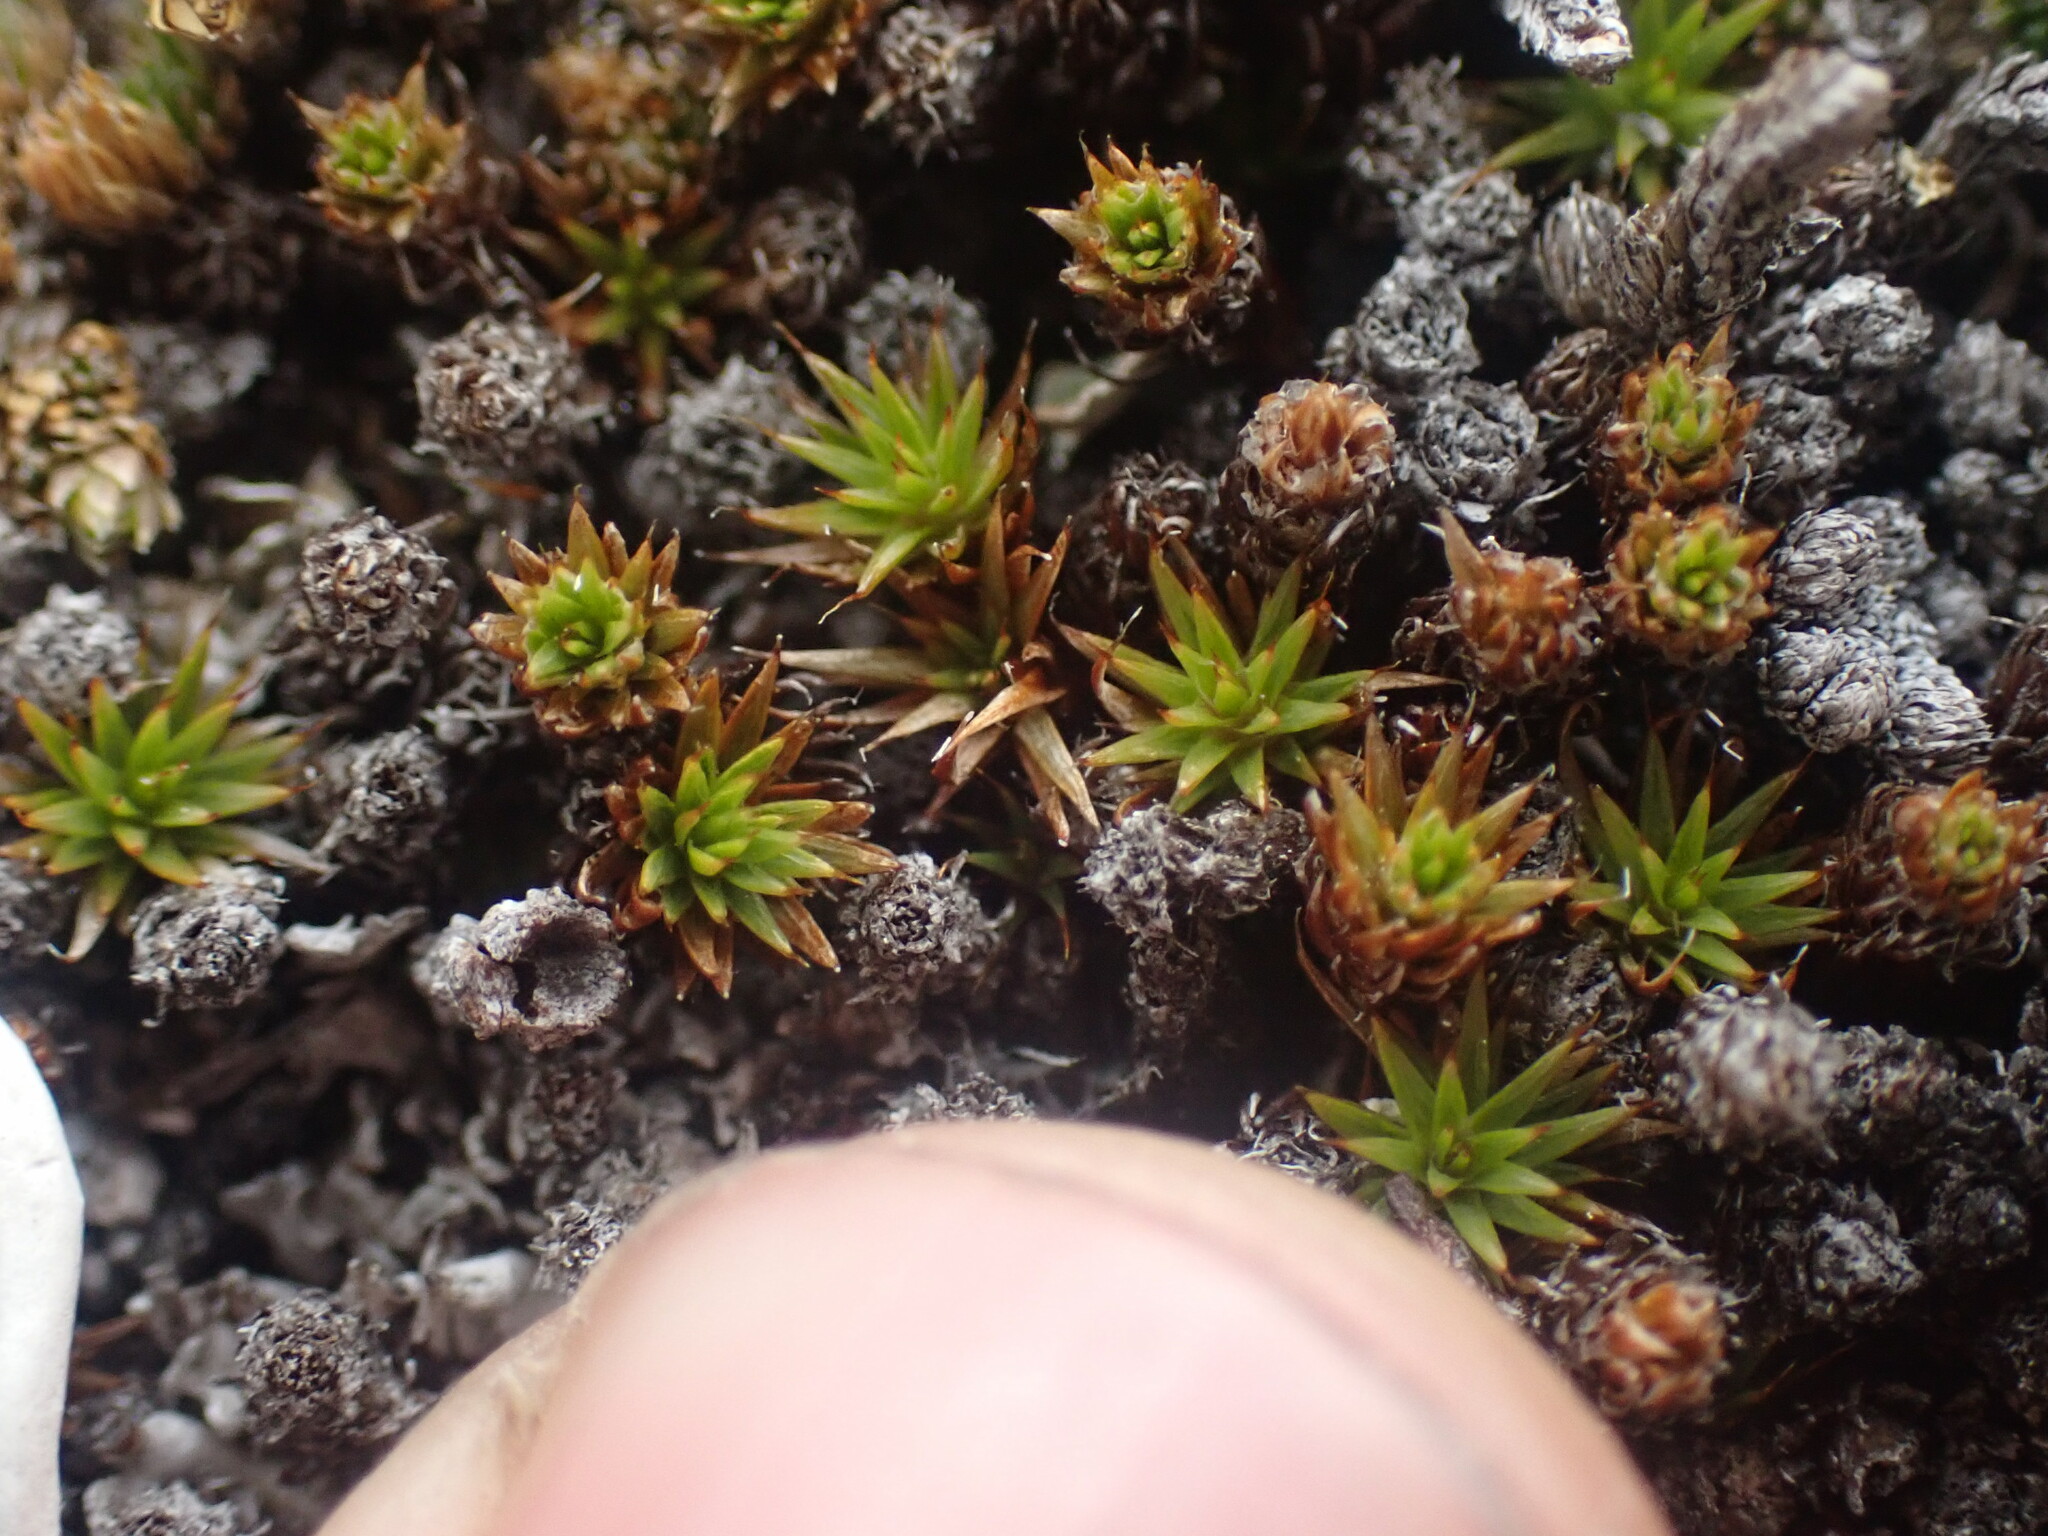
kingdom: Plantae
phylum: Bryophyta
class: Polytrichopsida
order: Polytrichales
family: Polytrichaceae
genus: Polytrichum
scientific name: Polytrichum piliferum
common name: Bristly haircap
